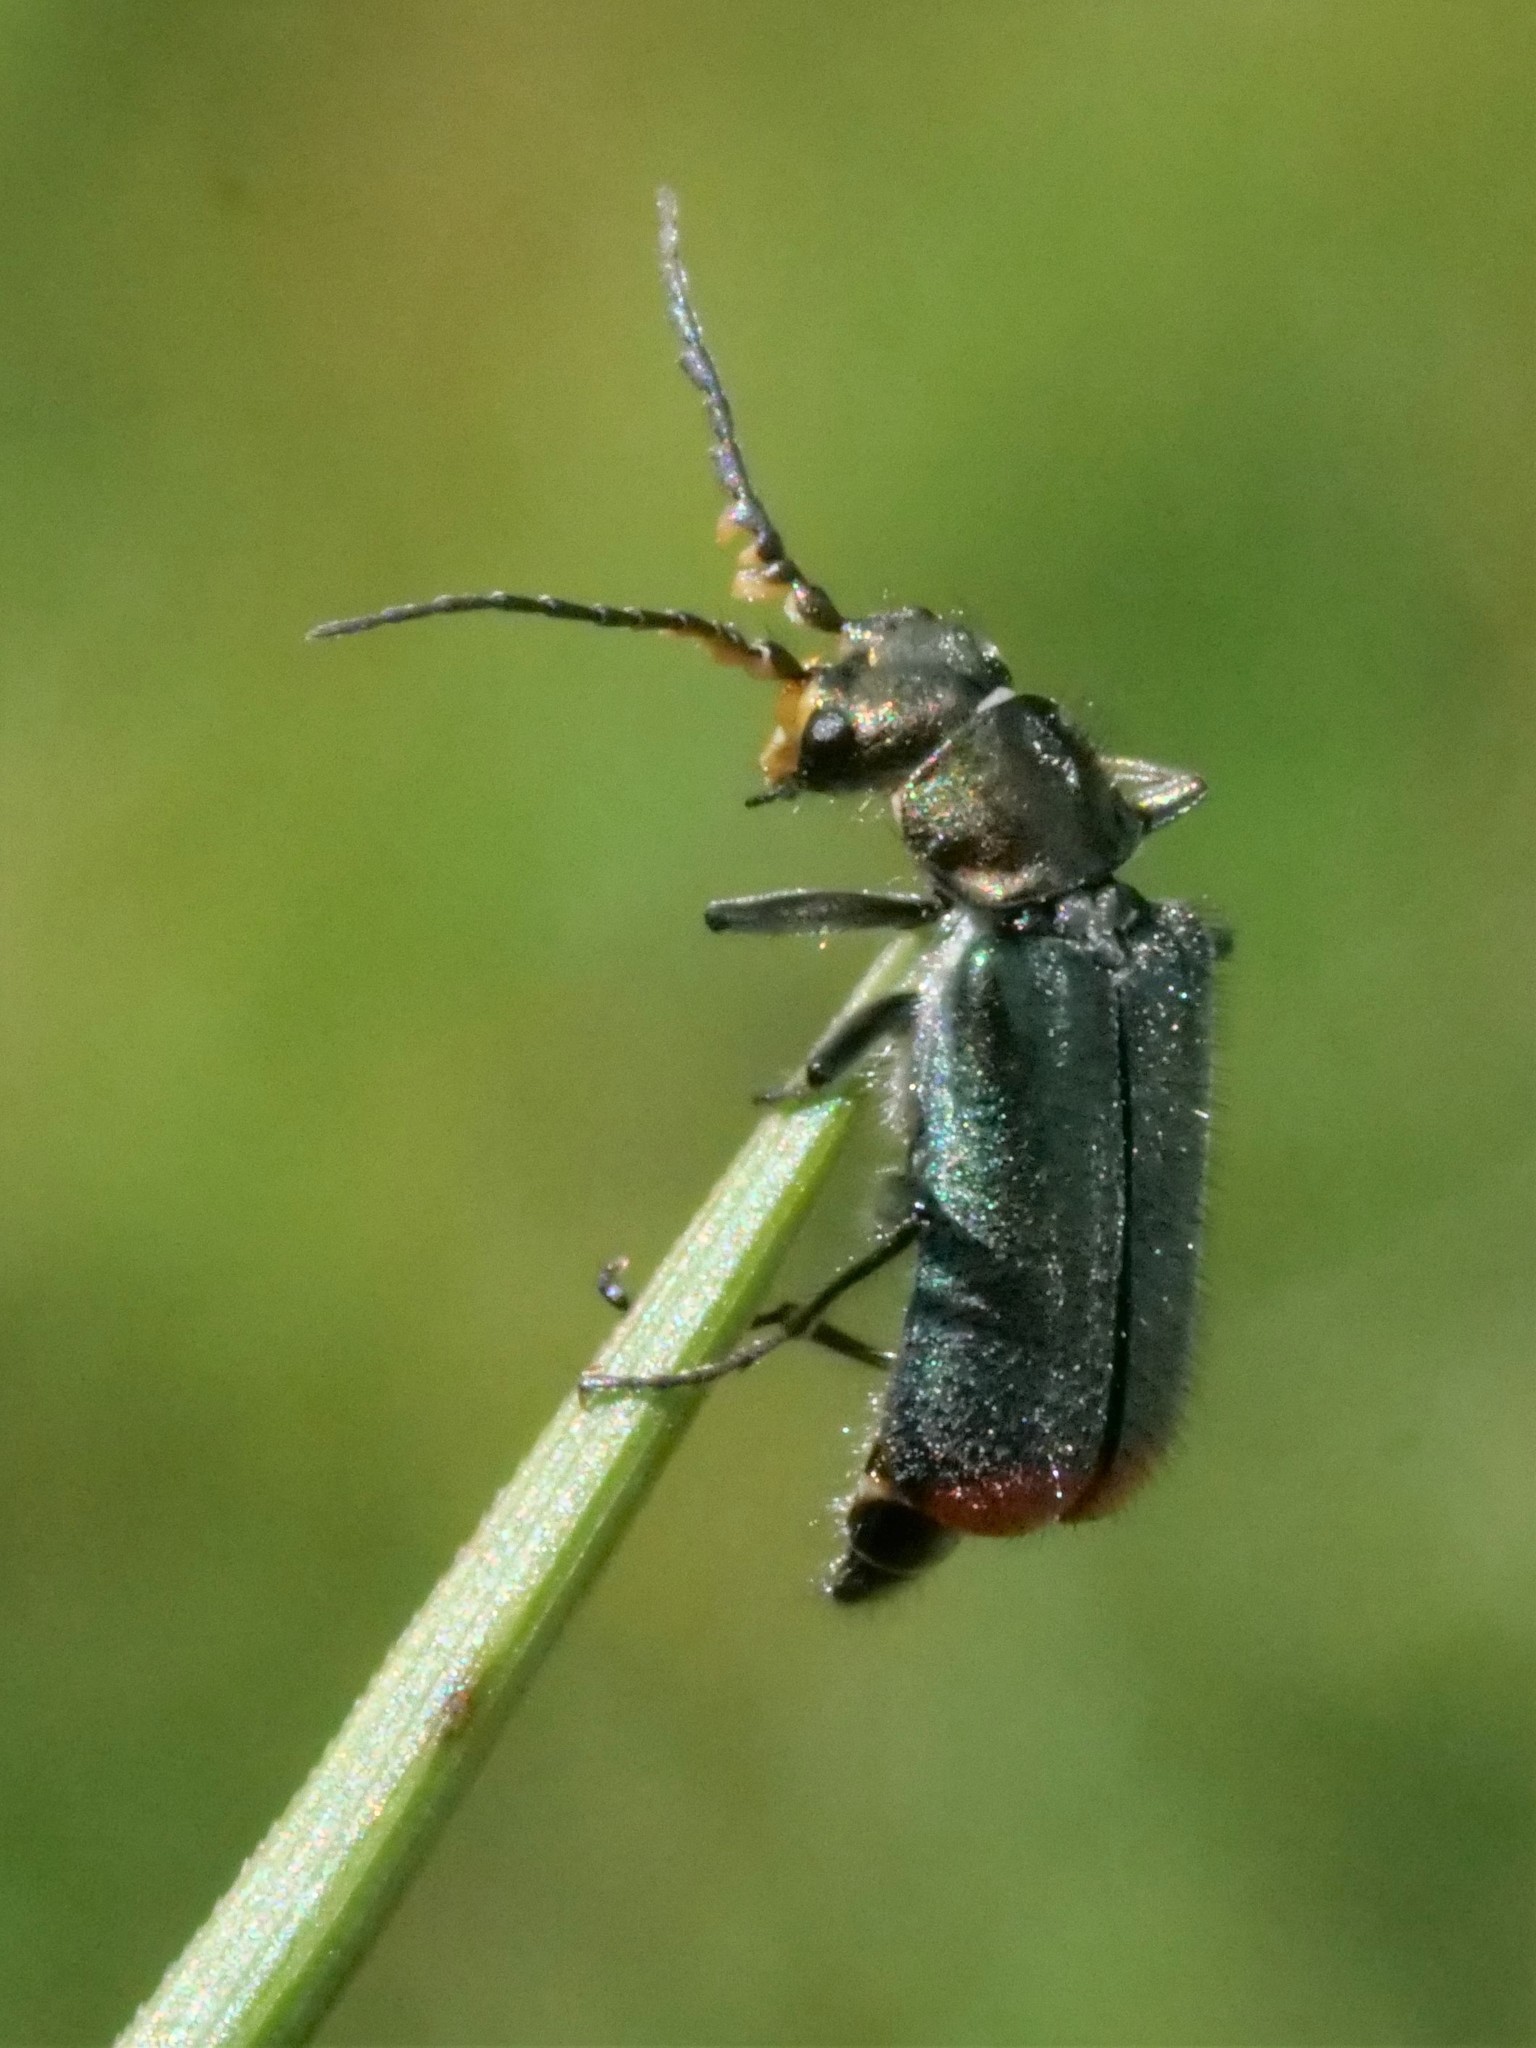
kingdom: Animalia
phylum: Arthropoda
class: Insecta
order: Coleoptera
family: Melyridae
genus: Malachius
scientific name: Malachius bipustulatus
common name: Malachite beetle
